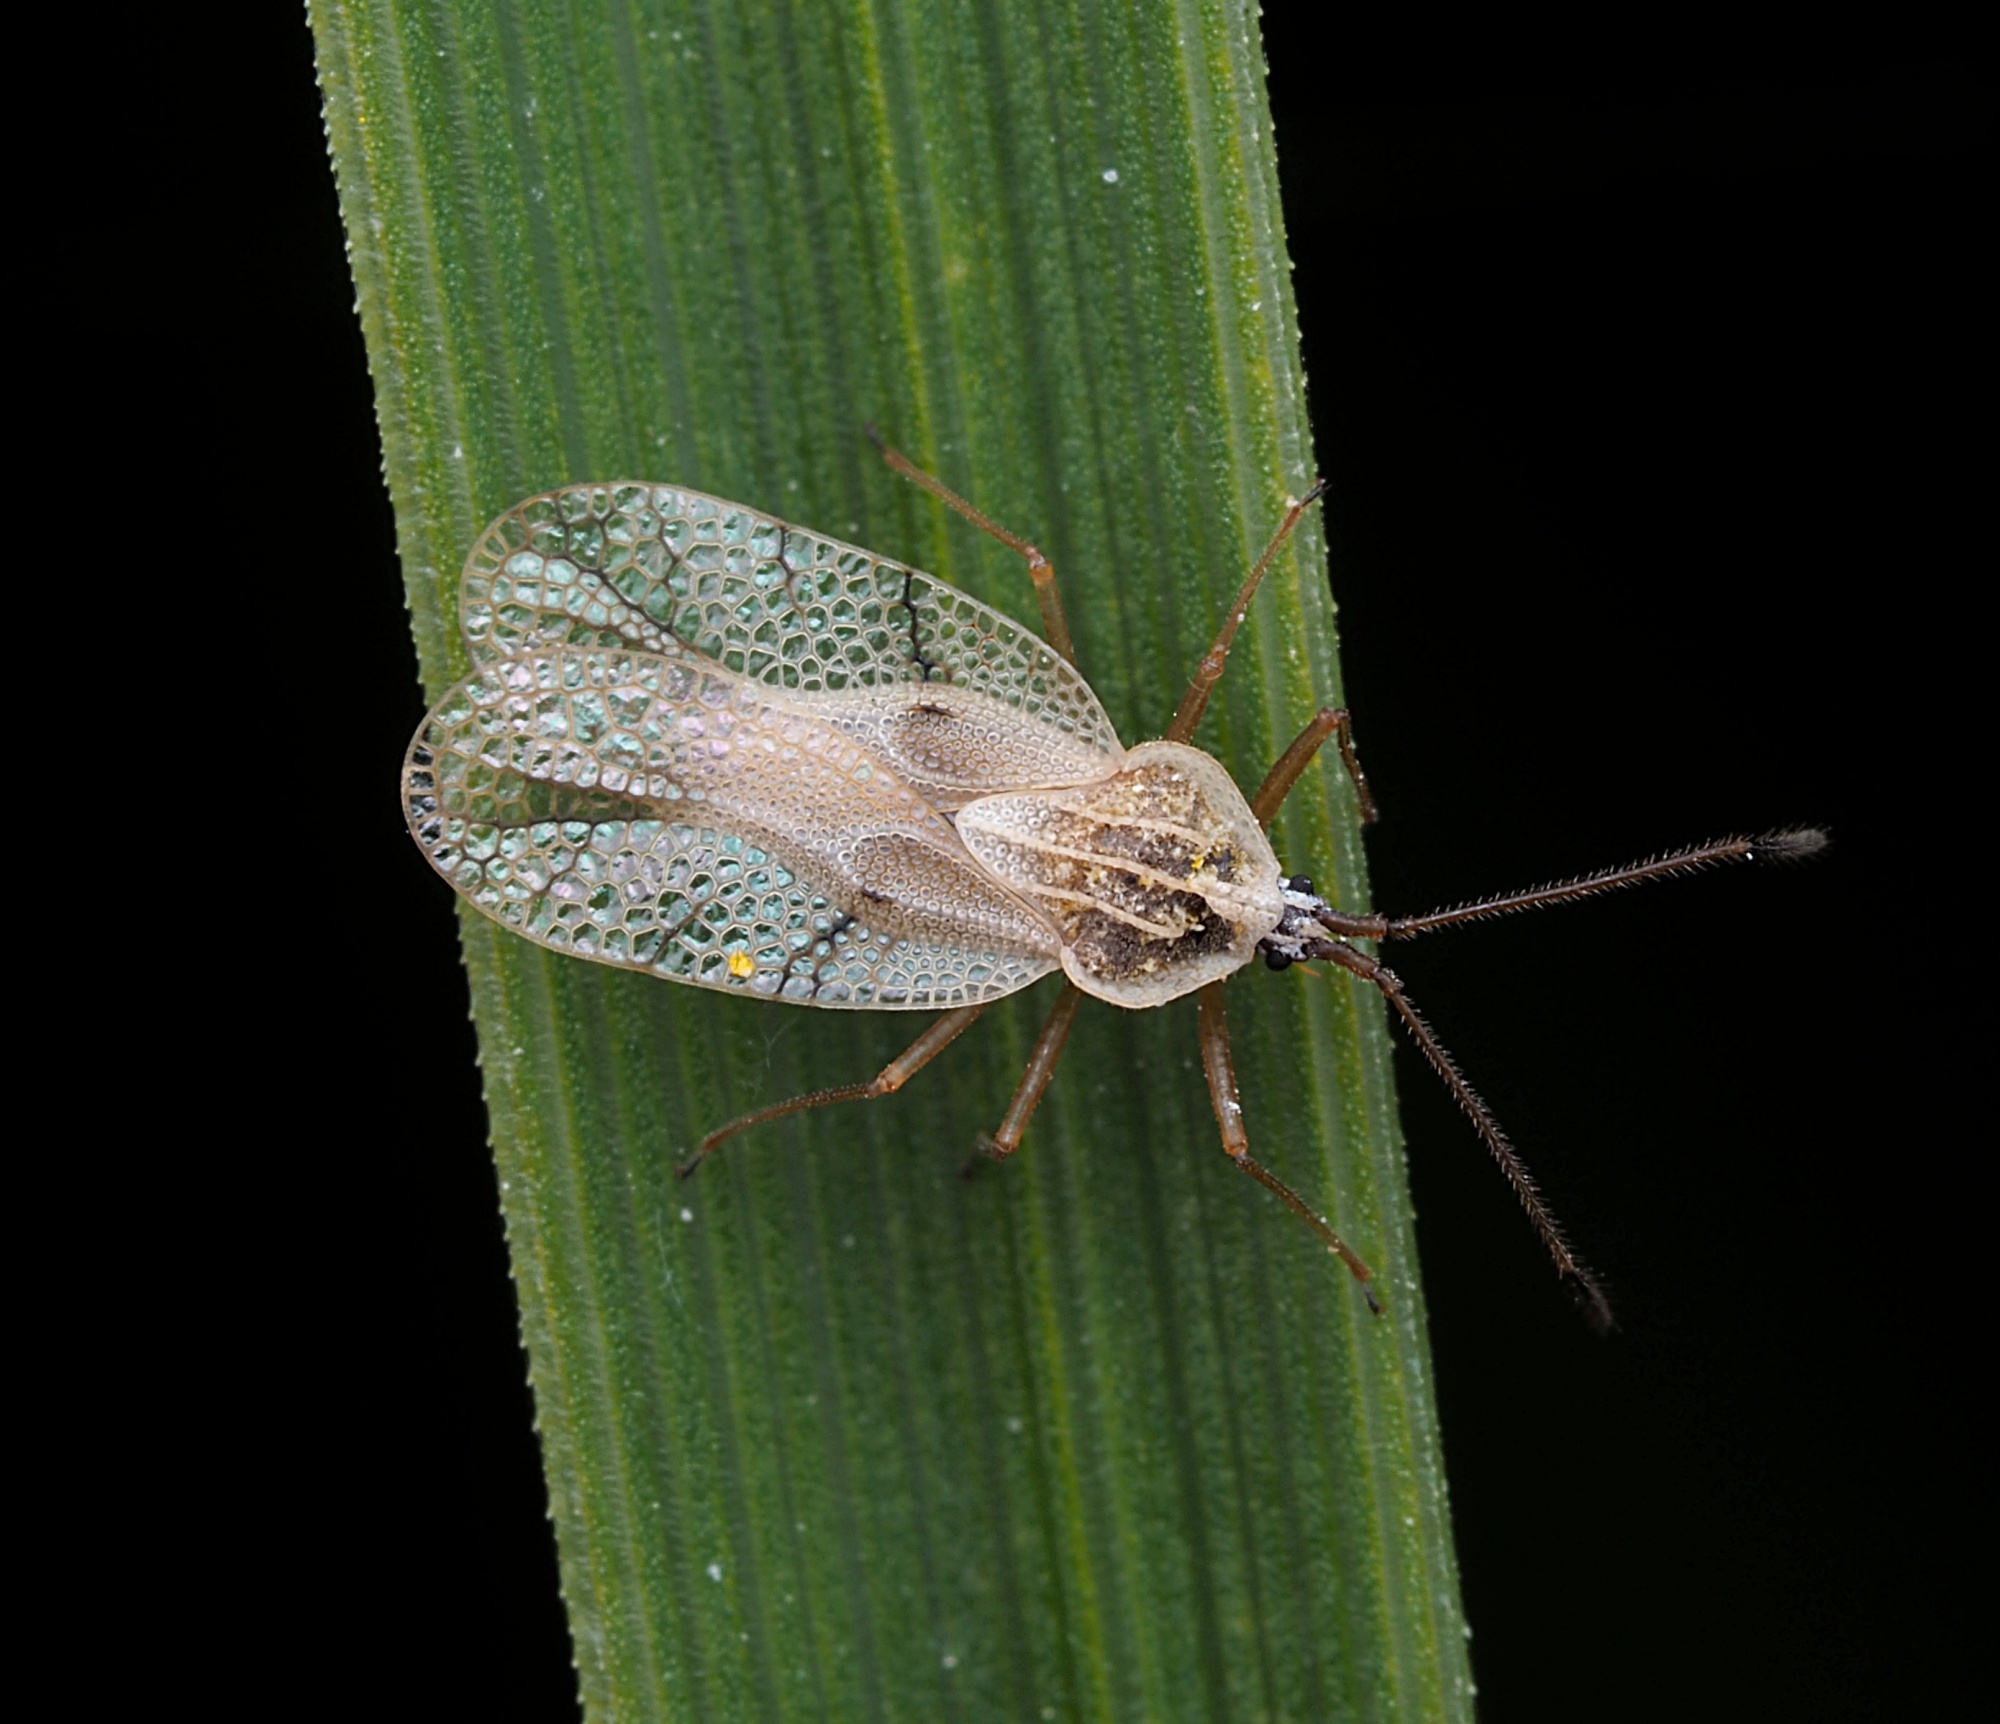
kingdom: Animalia
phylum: Arthropoda
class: Insecta
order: Hemiptera
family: Tingidae
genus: Gargaphia
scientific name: Gargaphia decoris
